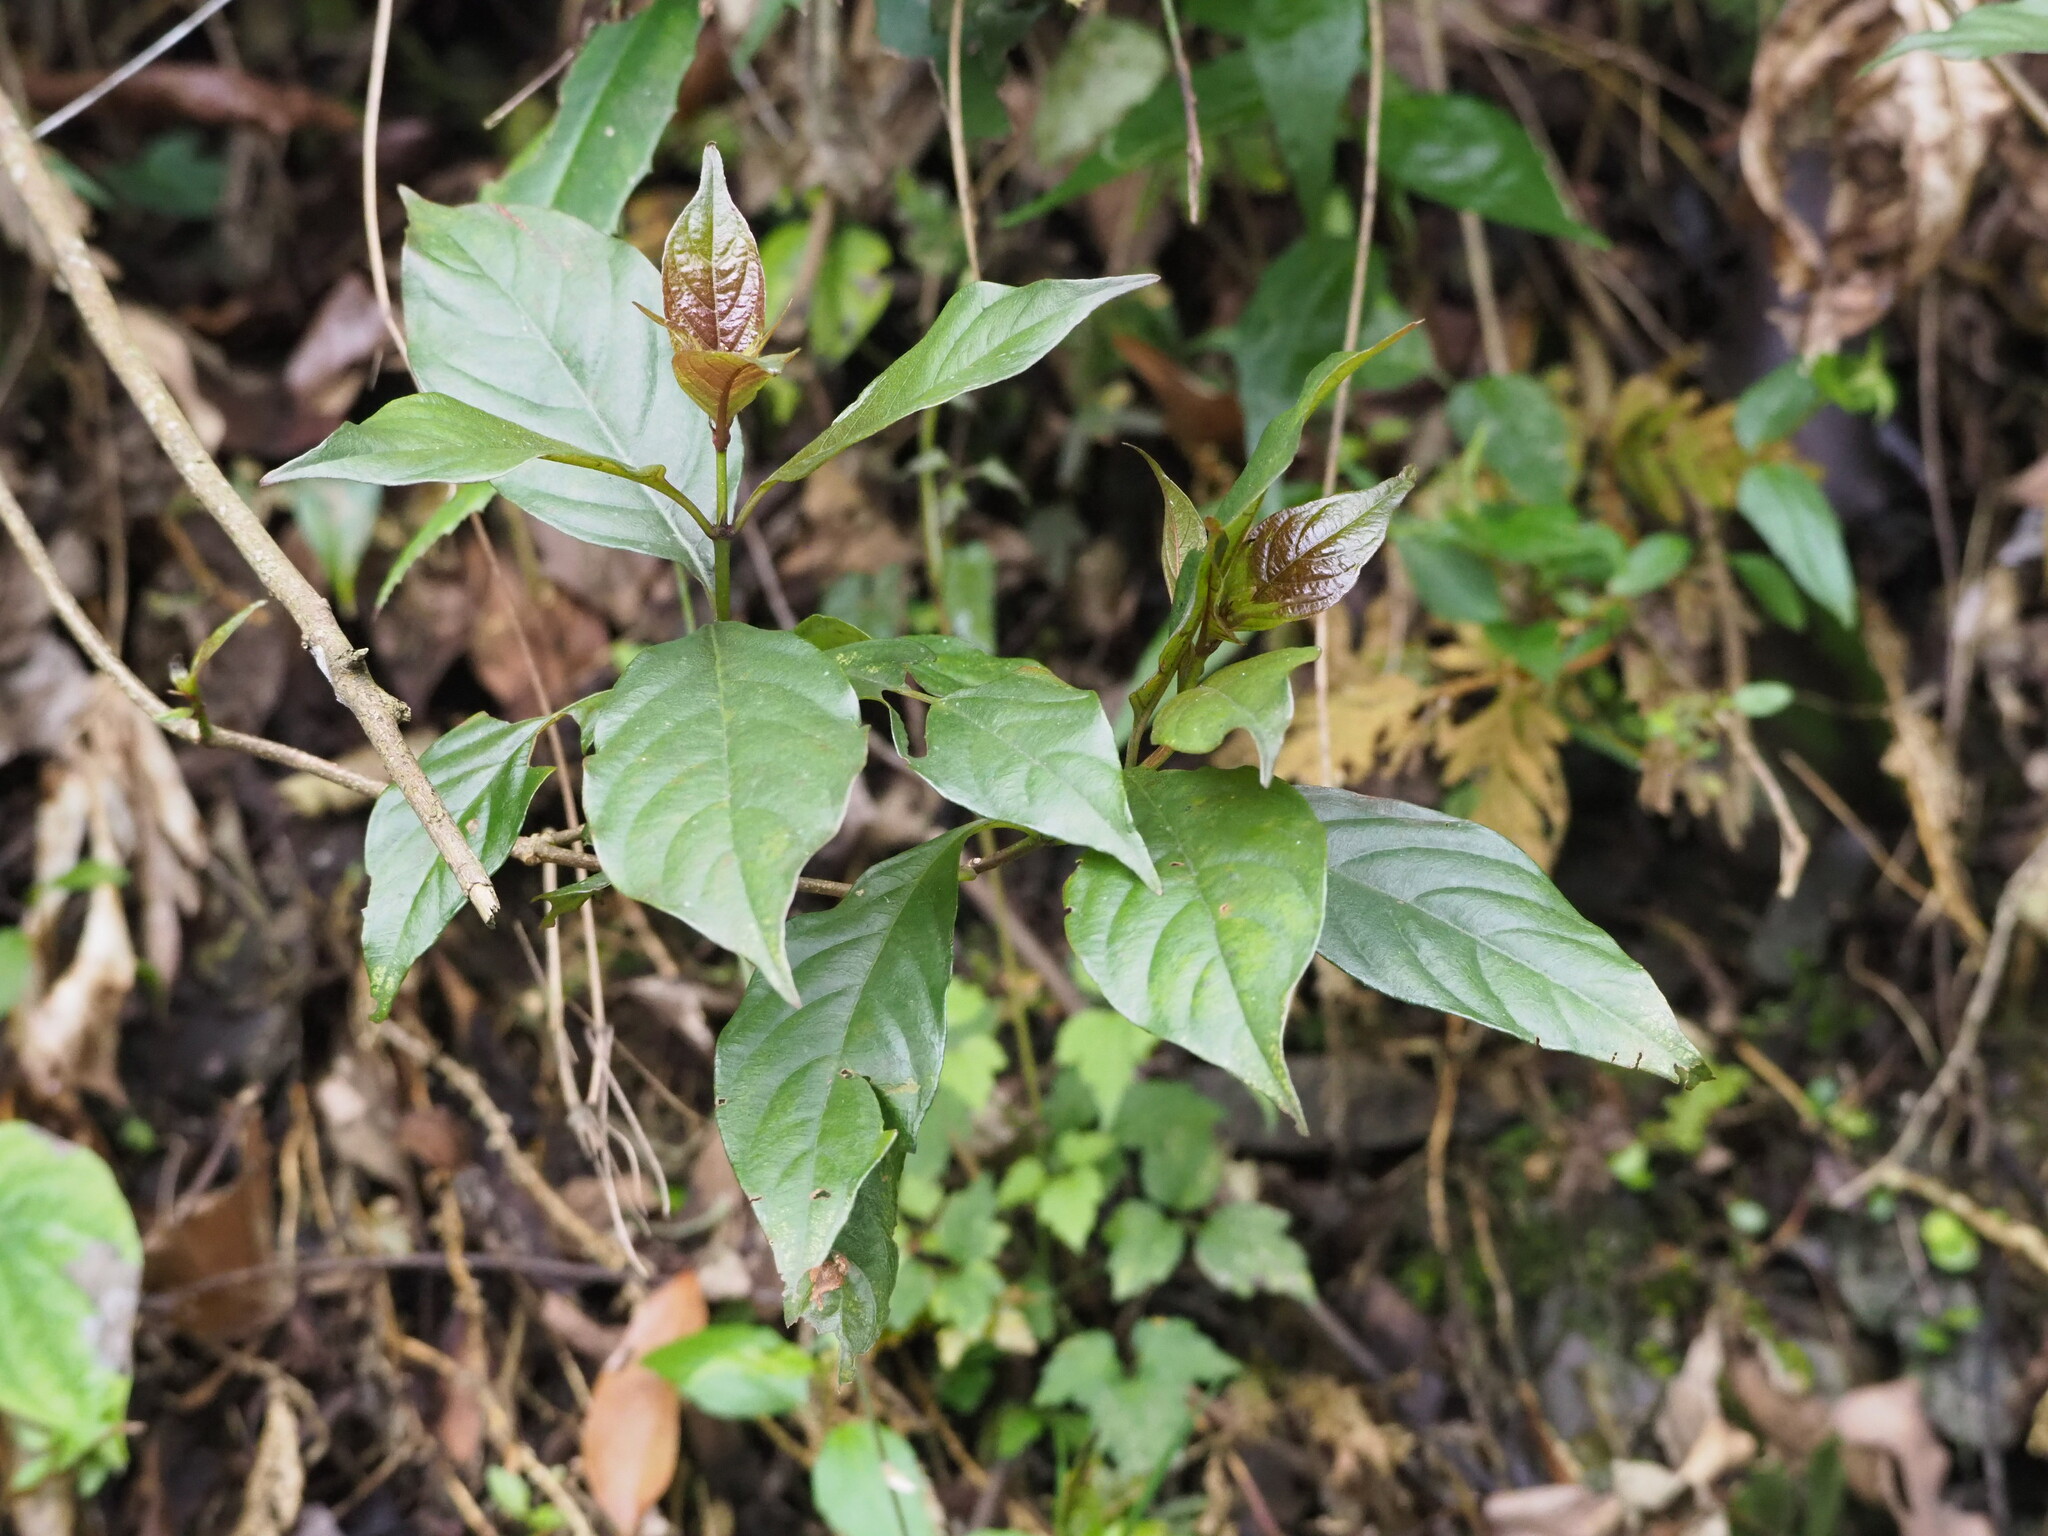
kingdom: Plantae
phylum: Tracheophyta
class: Magnoliopsida
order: Gentianales
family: Rubiaceae
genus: Mussaenda
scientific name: Mussaenda parviflora
